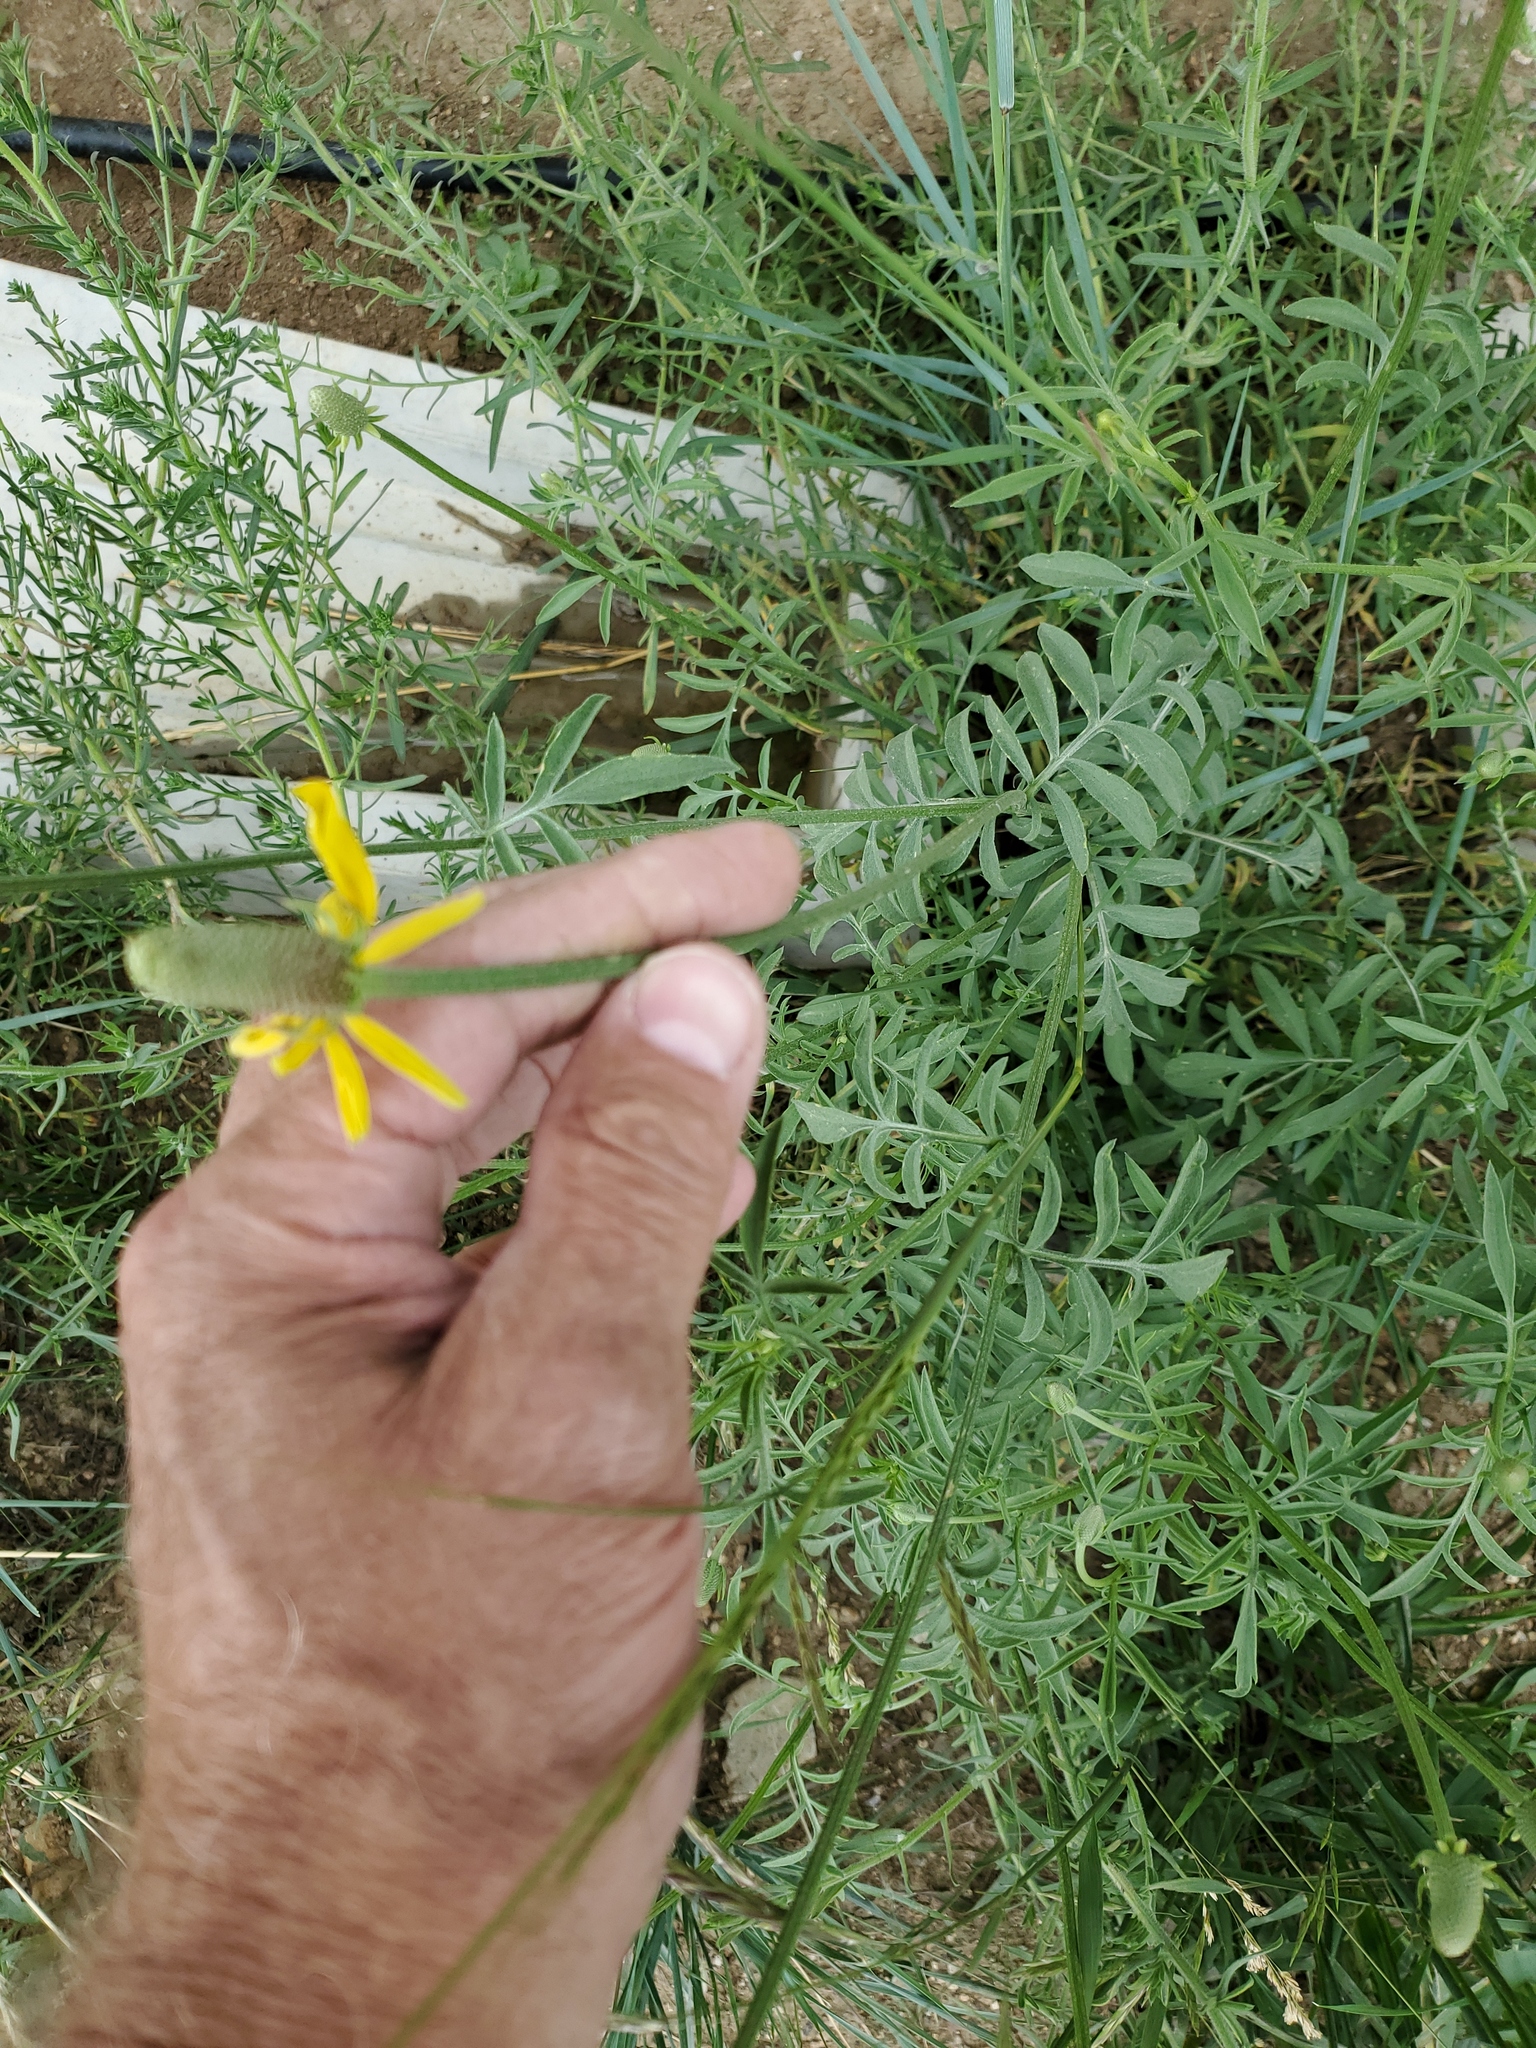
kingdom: Plantae
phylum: Tracheophyta
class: Magnoliopsida
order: Asterales
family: Asteraceae
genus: Ratibida
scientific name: Ratibida columnifera
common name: Prairie coneflower
